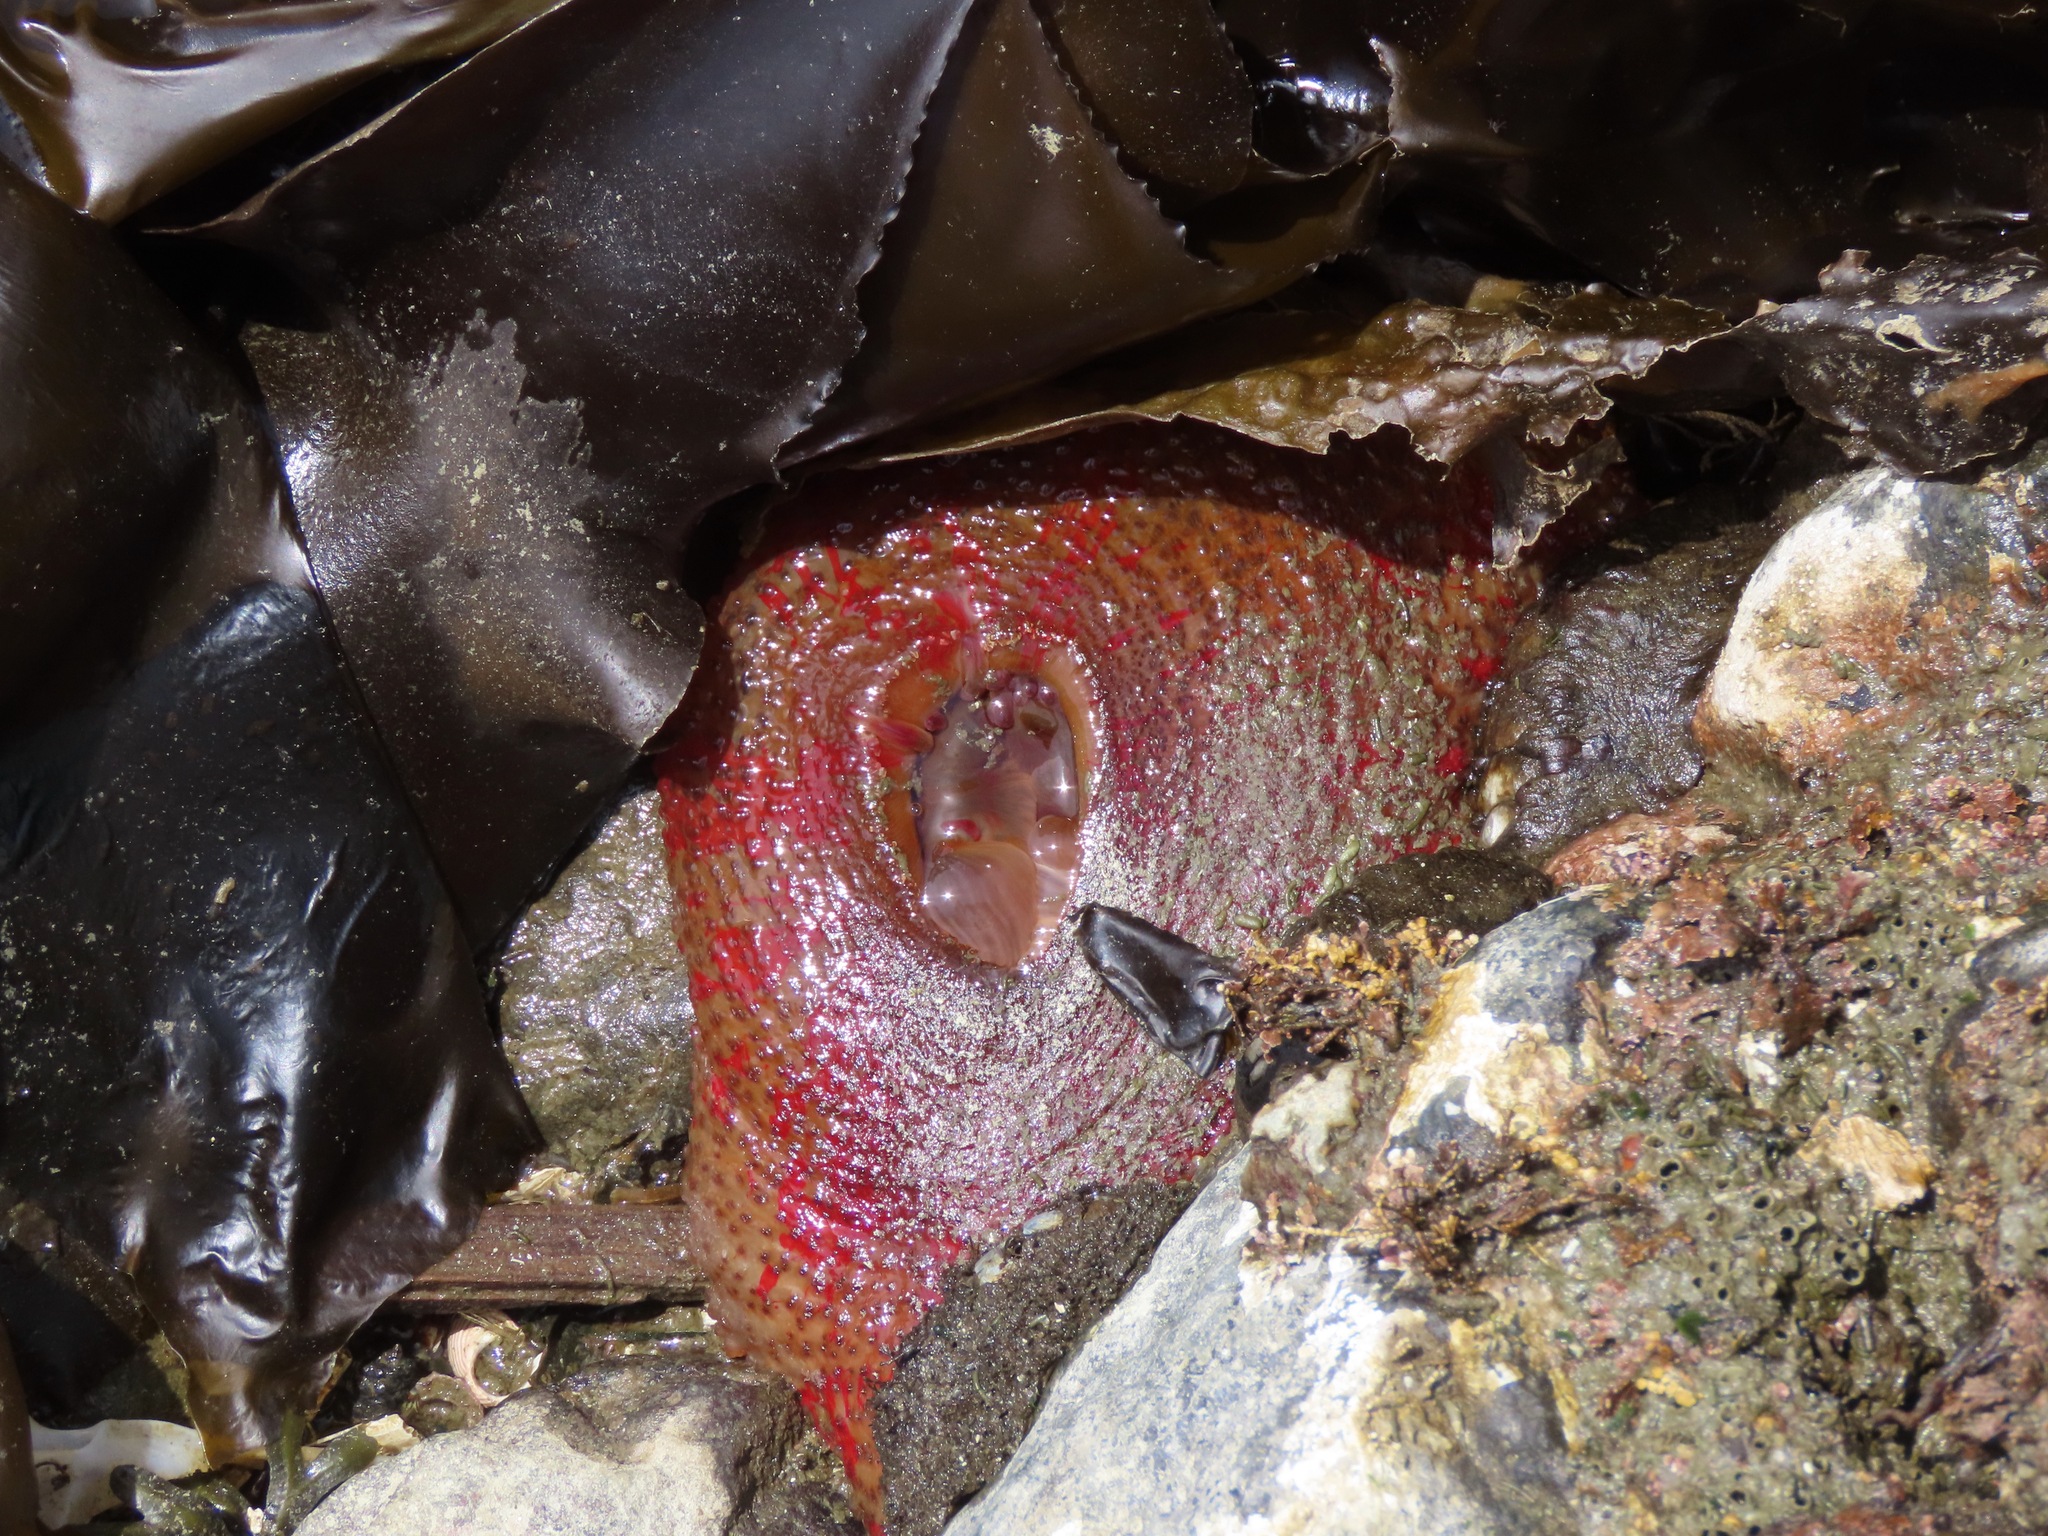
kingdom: Animalia
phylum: Cnidaria
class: Anthozoa
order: Actiniaria
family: Actiniidae
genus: Urticina
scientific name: Urticina grebelnyi
